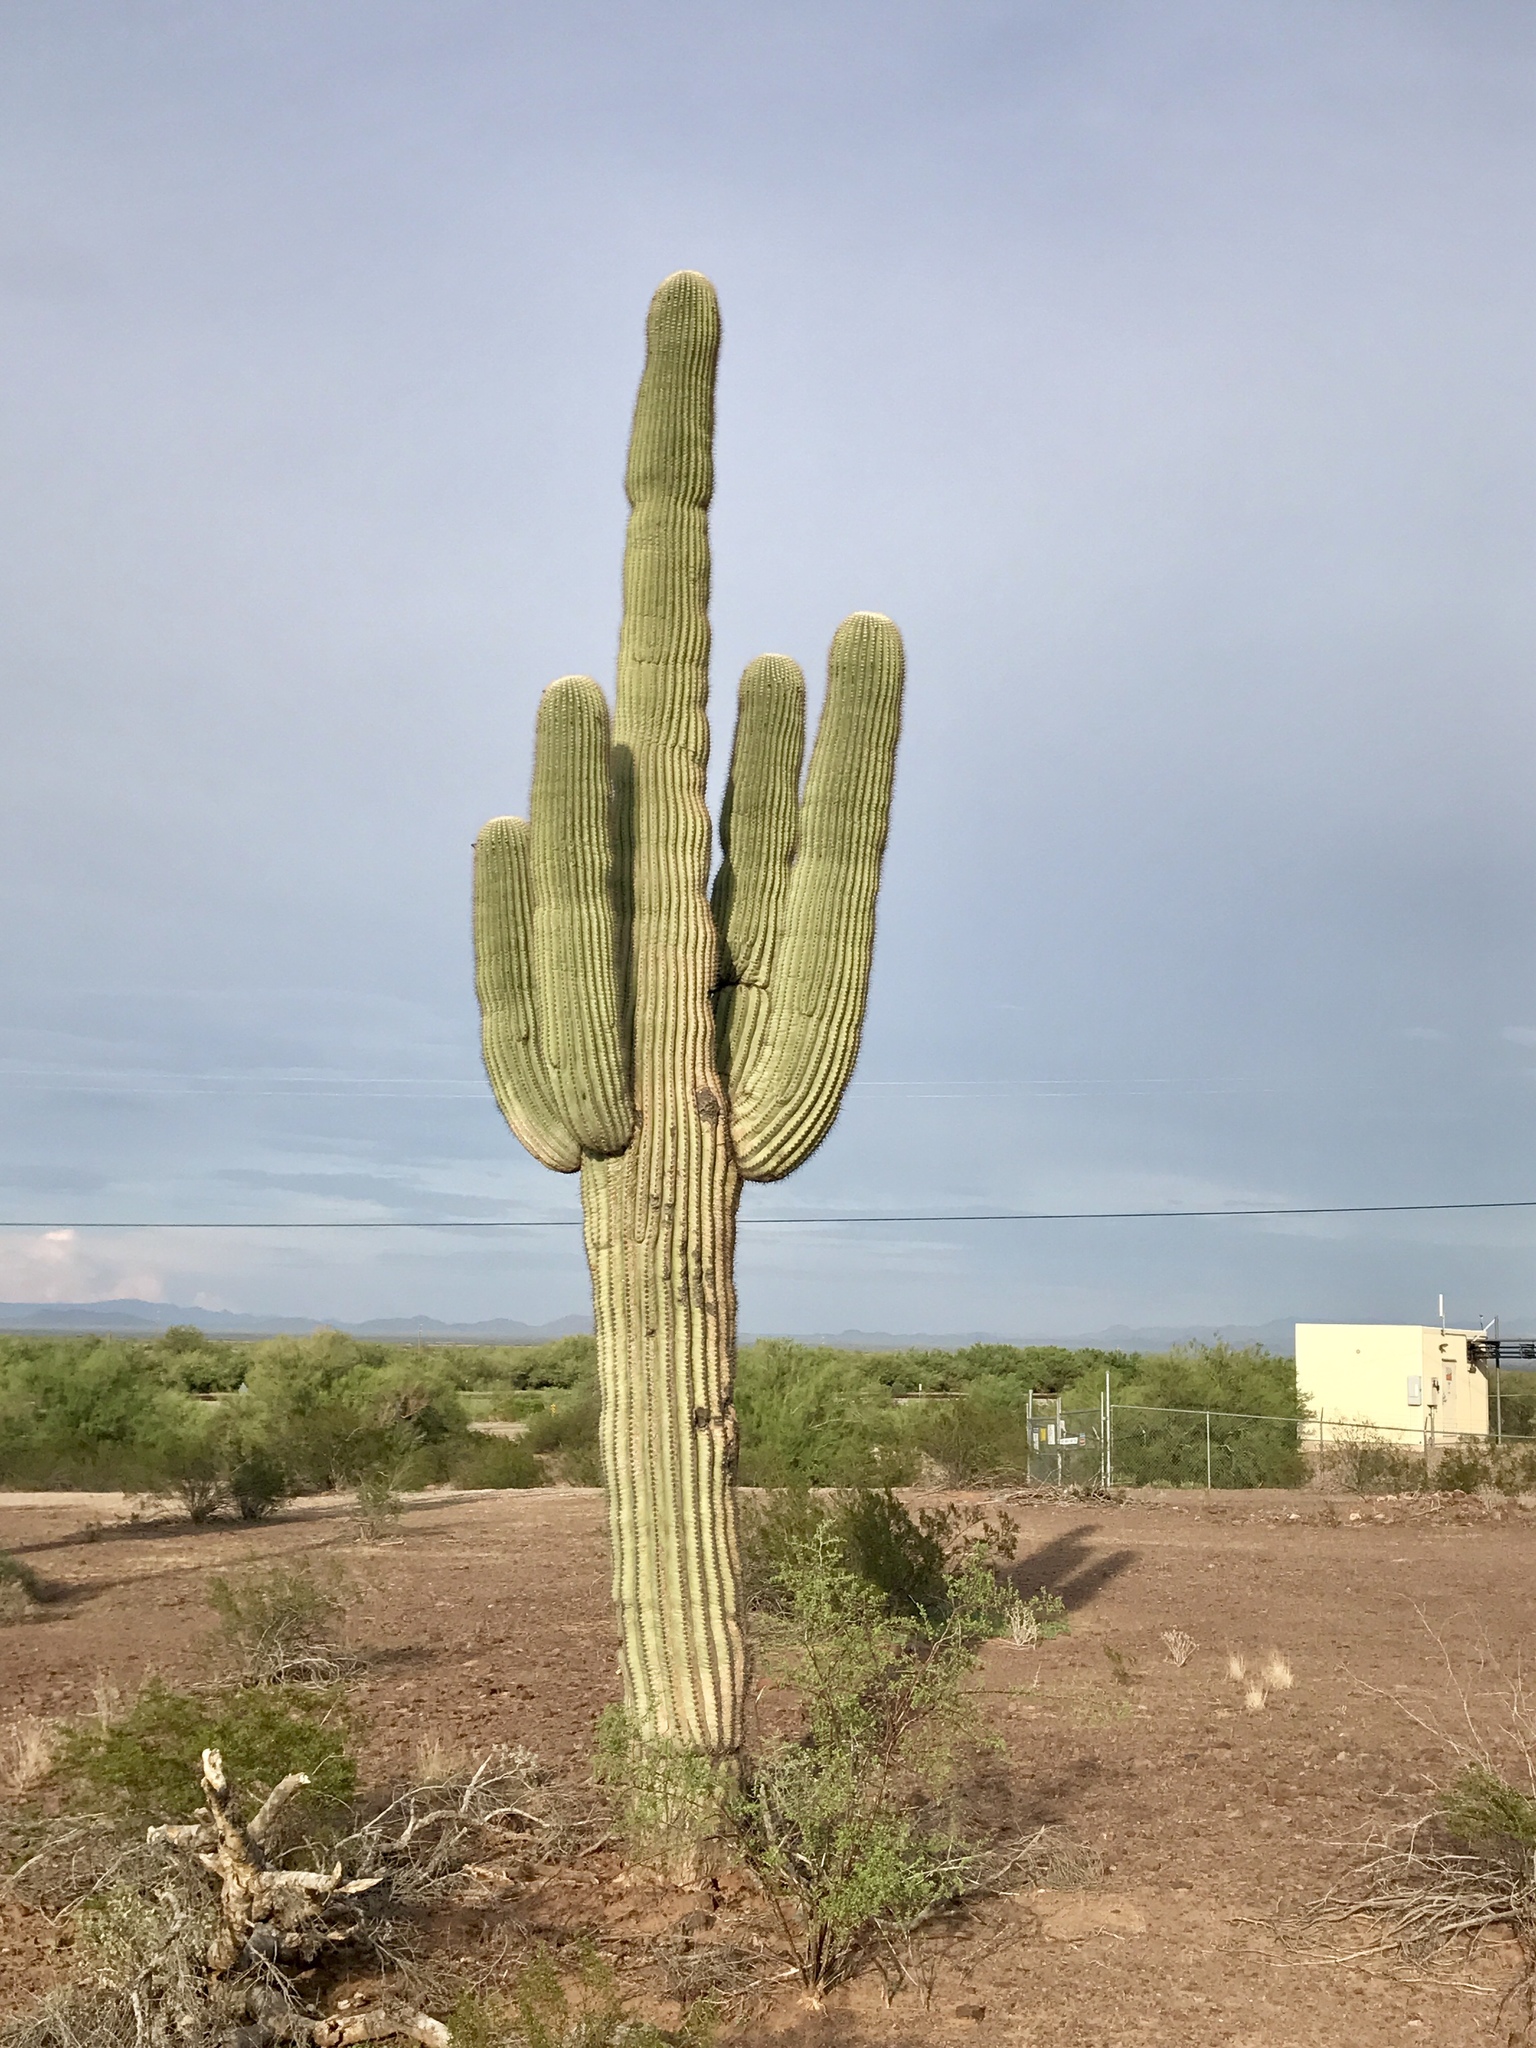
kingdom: Plantae
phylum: Tracheophyta
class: Magnoliopsida
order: Caryophyllales
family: Cactaceae
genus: Carnegiea
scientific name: Carnegiea gigantea
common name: Saguaro
